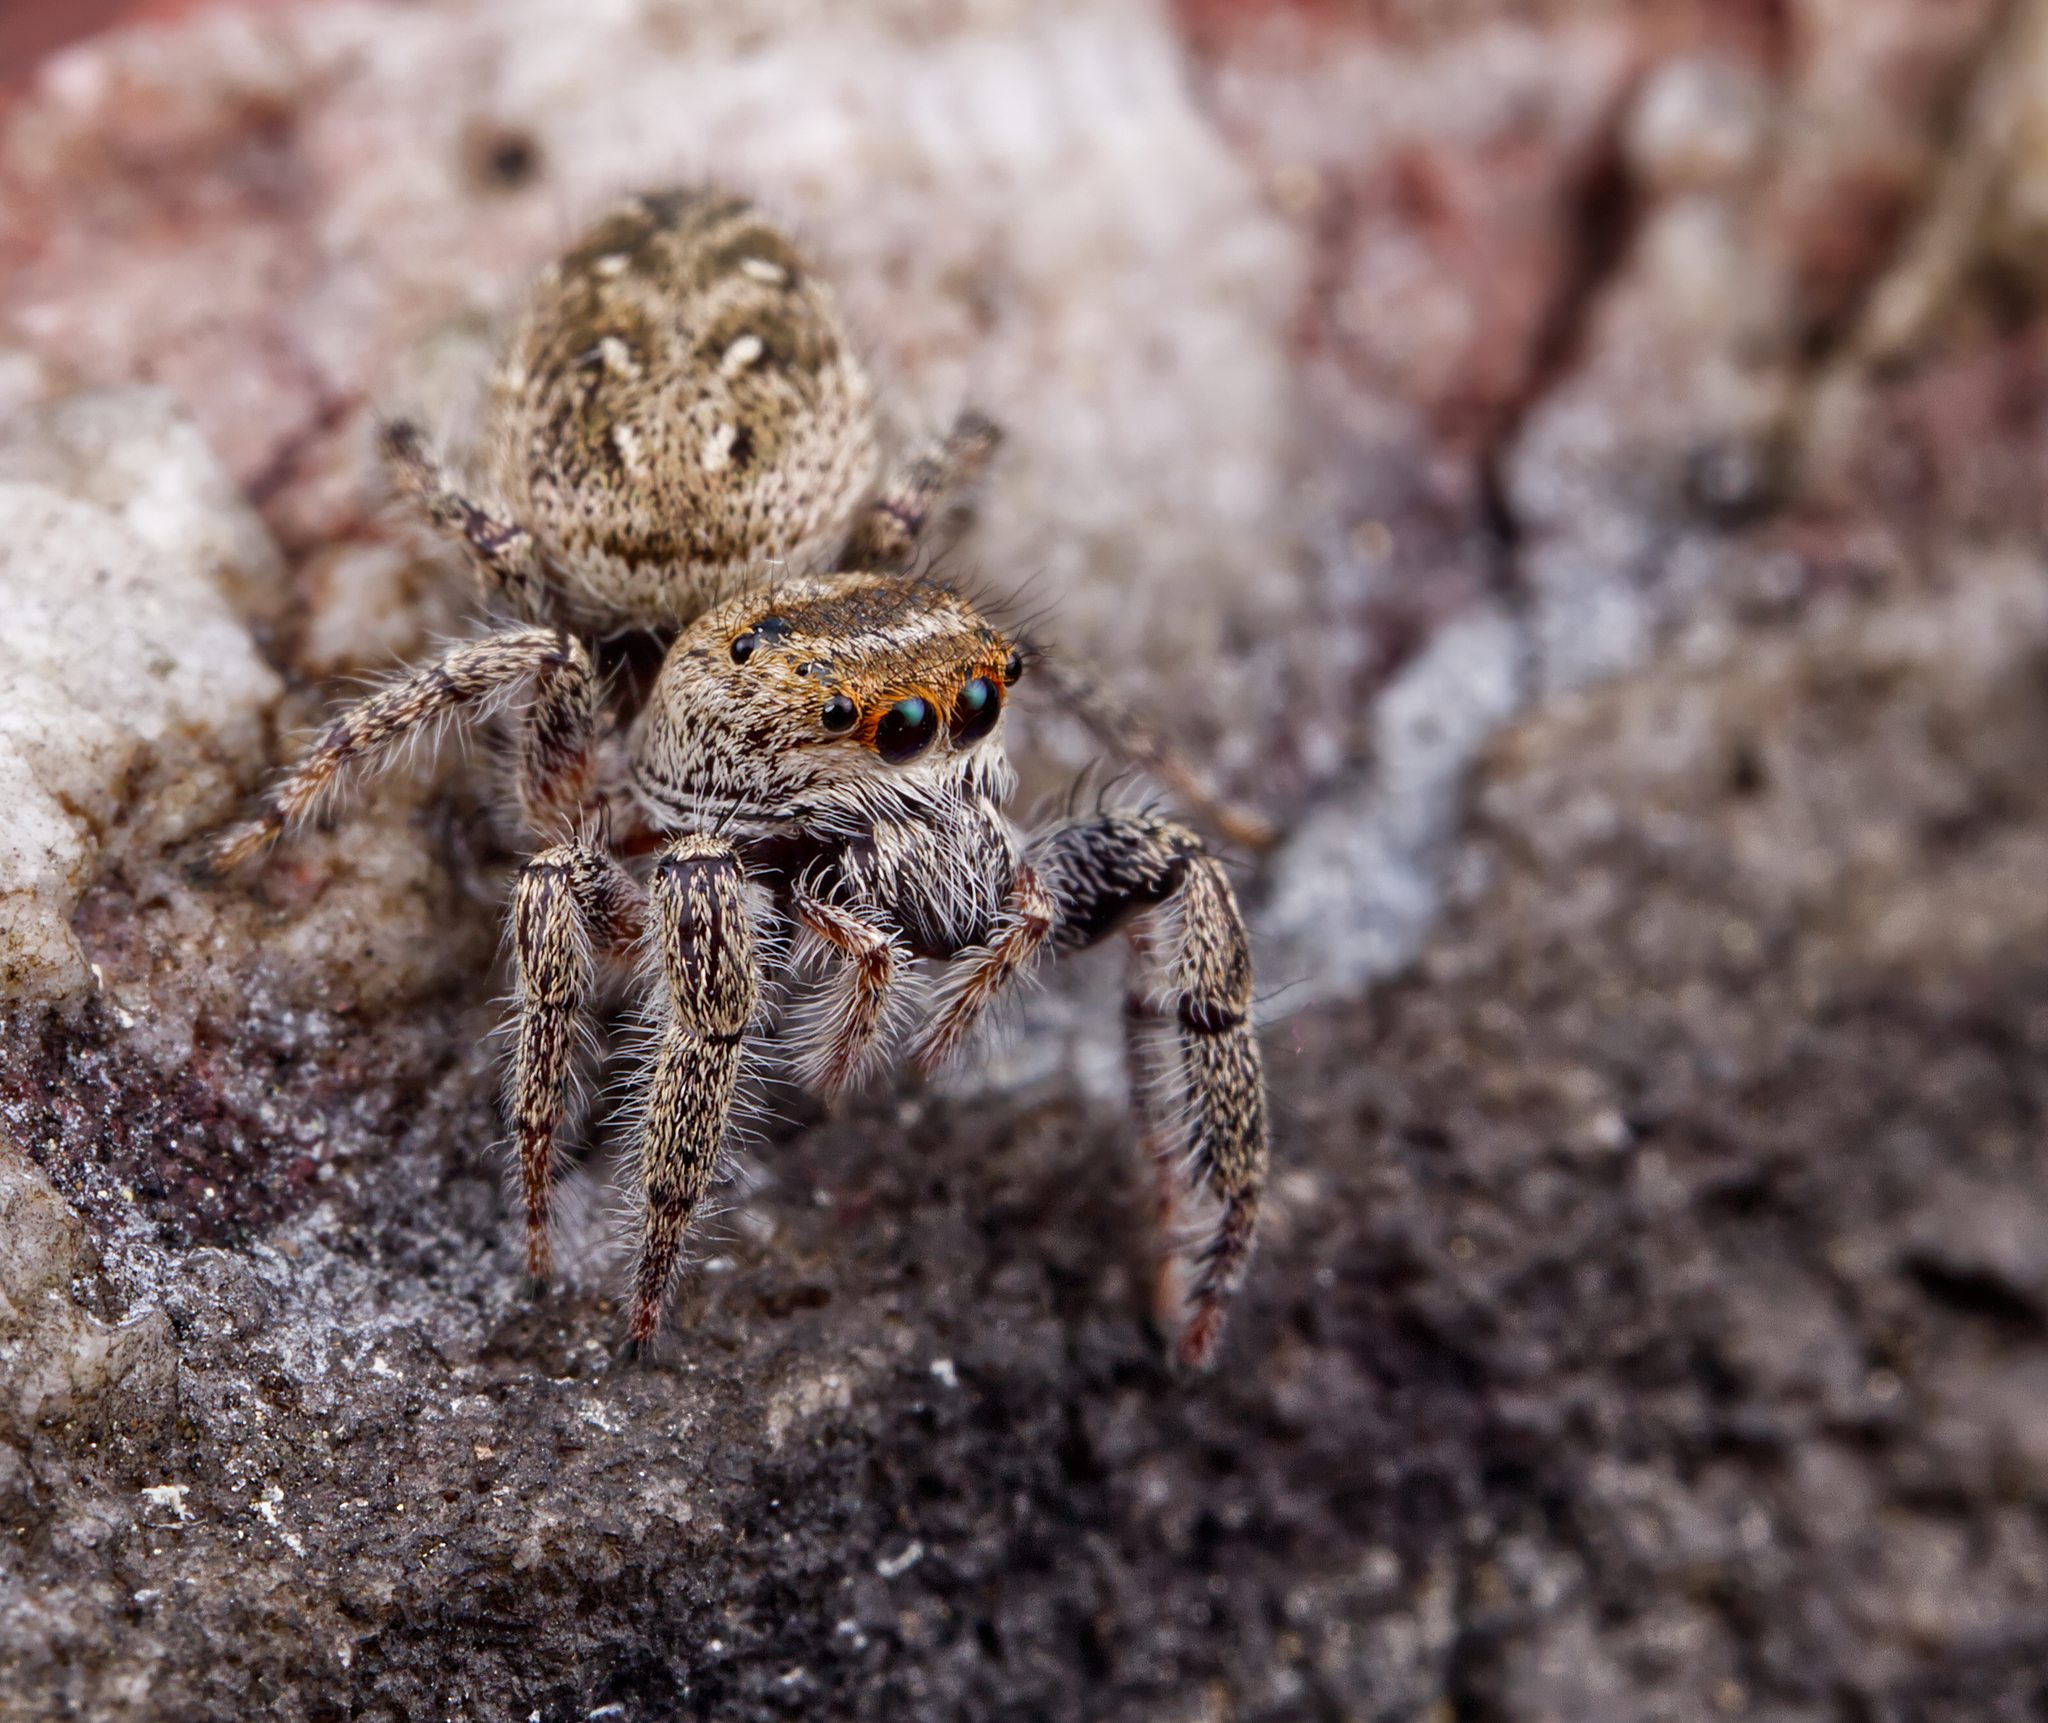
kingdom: Animalia
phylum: Arthropoda
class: Arachnida
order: Araneae
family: Salticidae
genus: Eris
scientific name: Eris militaris
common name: Bronze jumper
